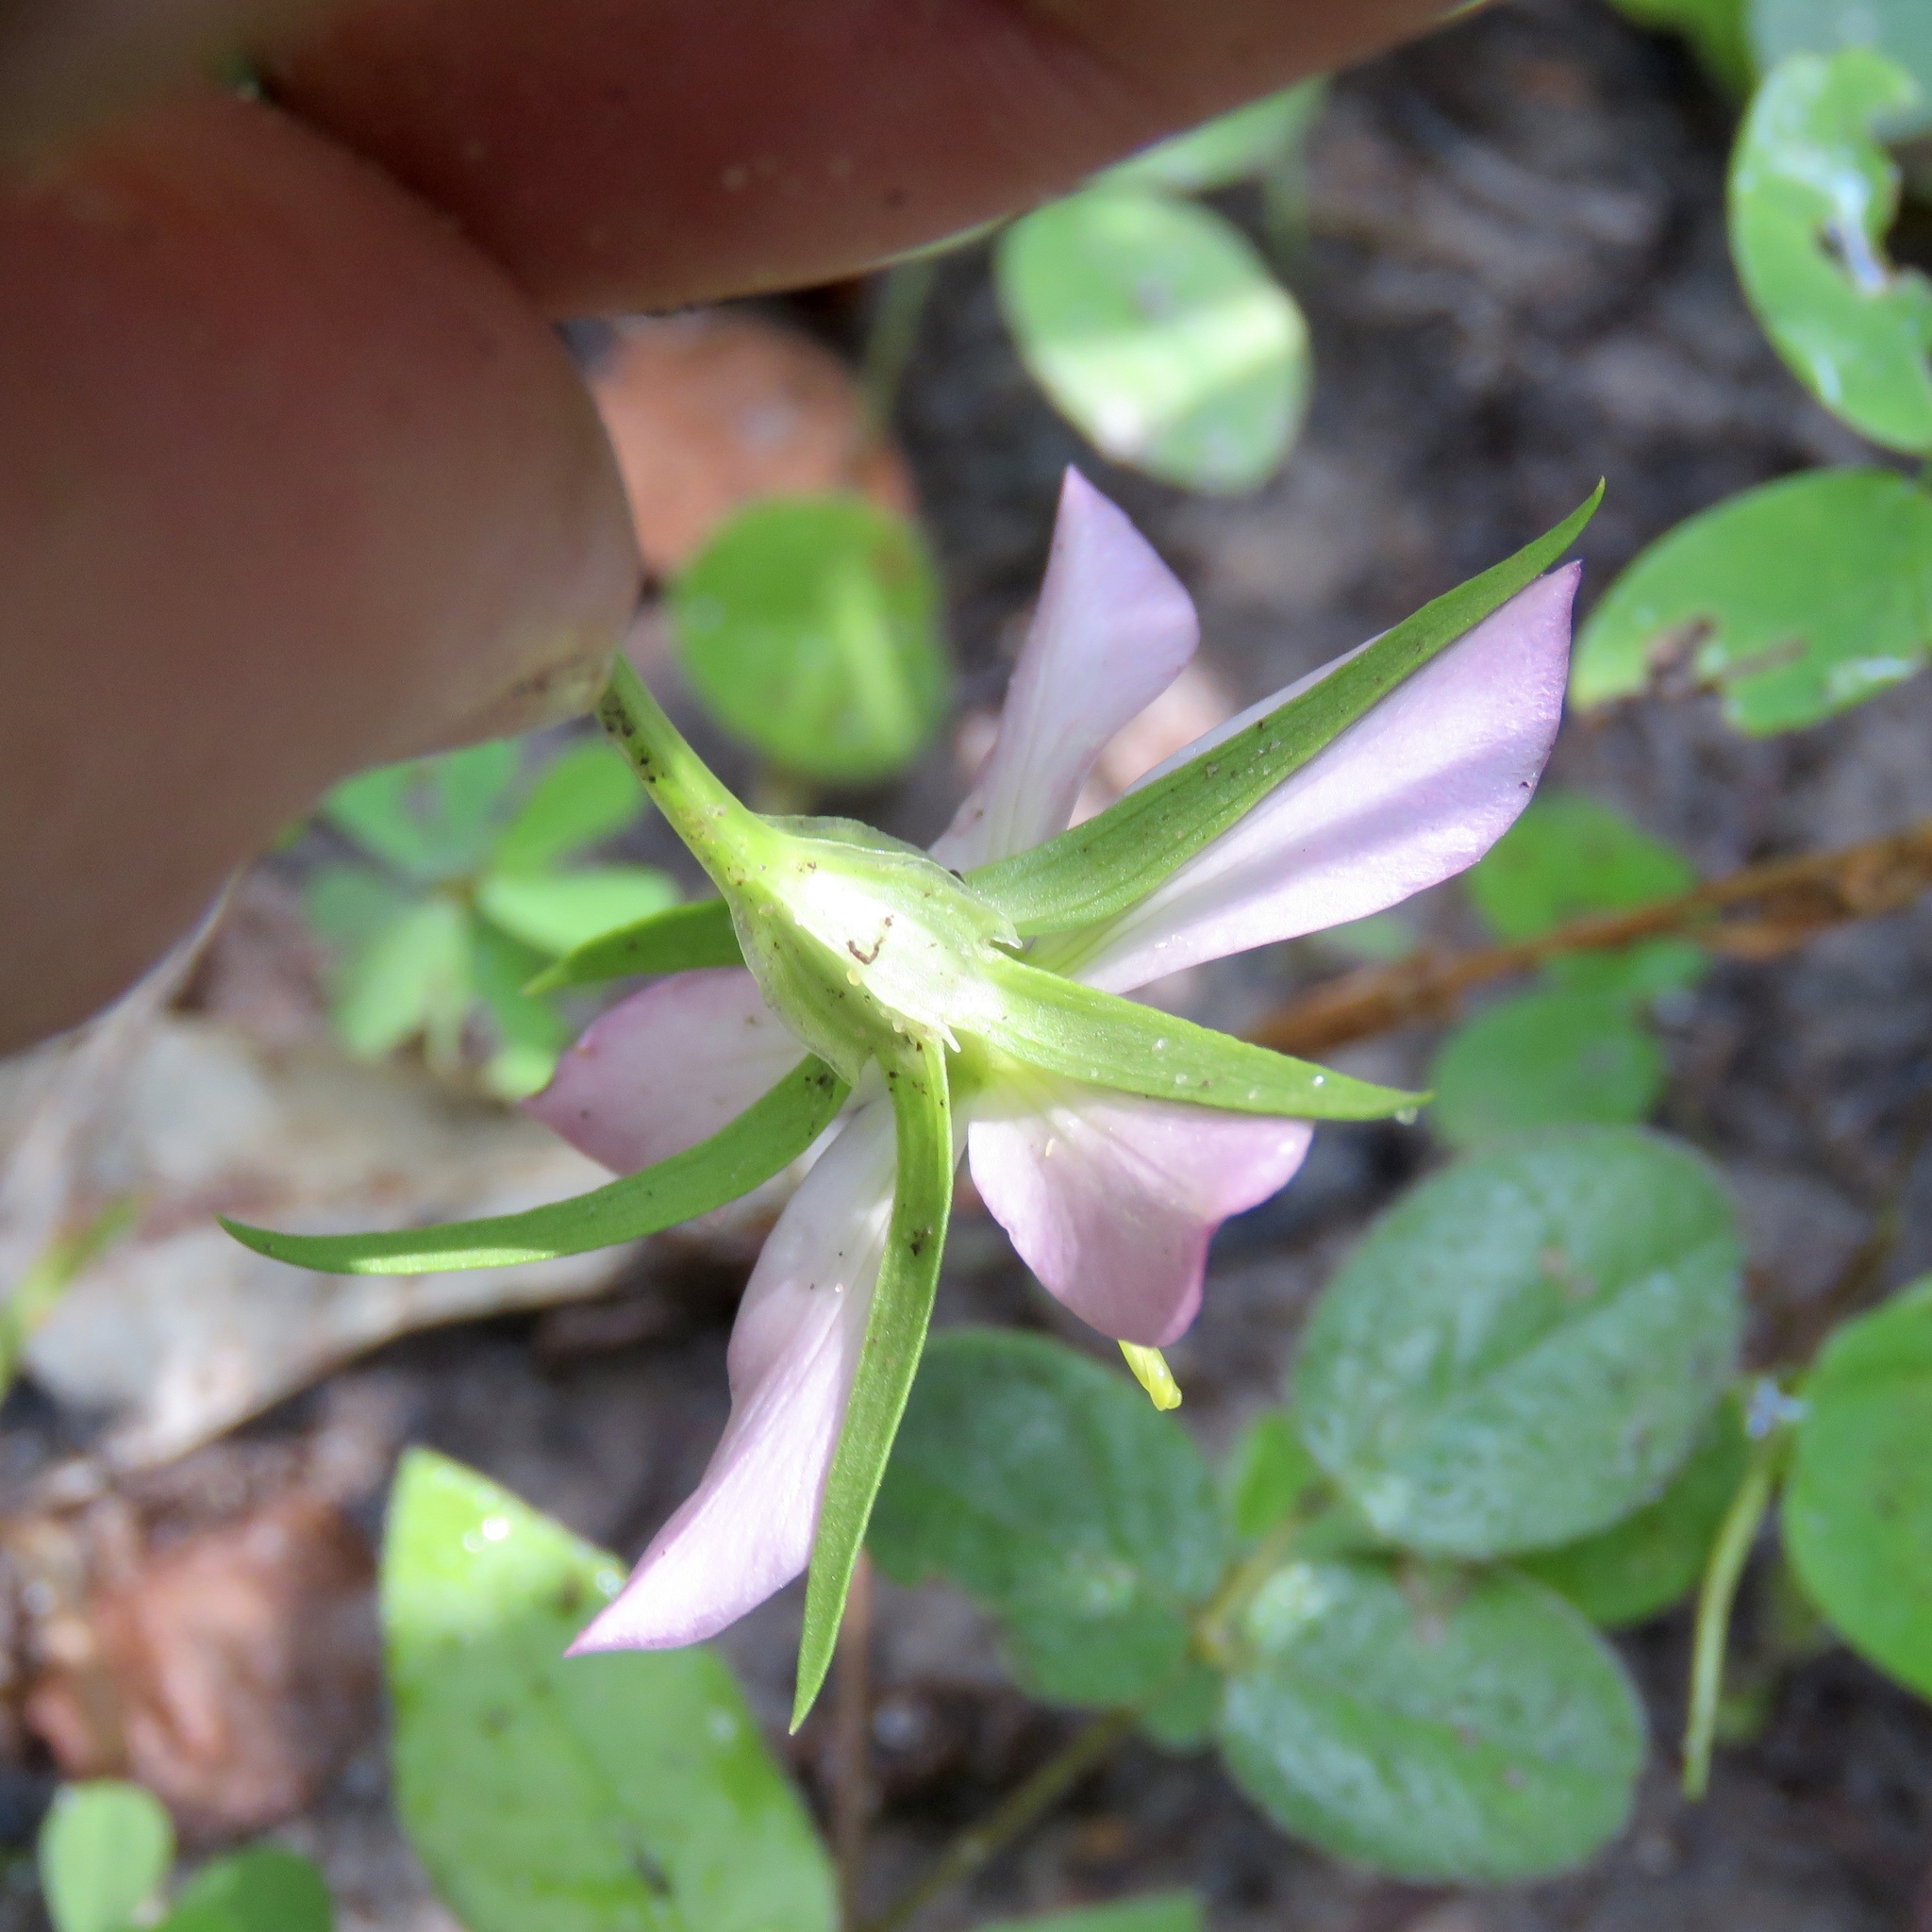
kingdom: Plantae
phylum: Tracheophyta
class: Magnoliopsida
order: Gentianales
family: Gentianaceae
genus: Sabatia
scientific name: Sabatia campestris
